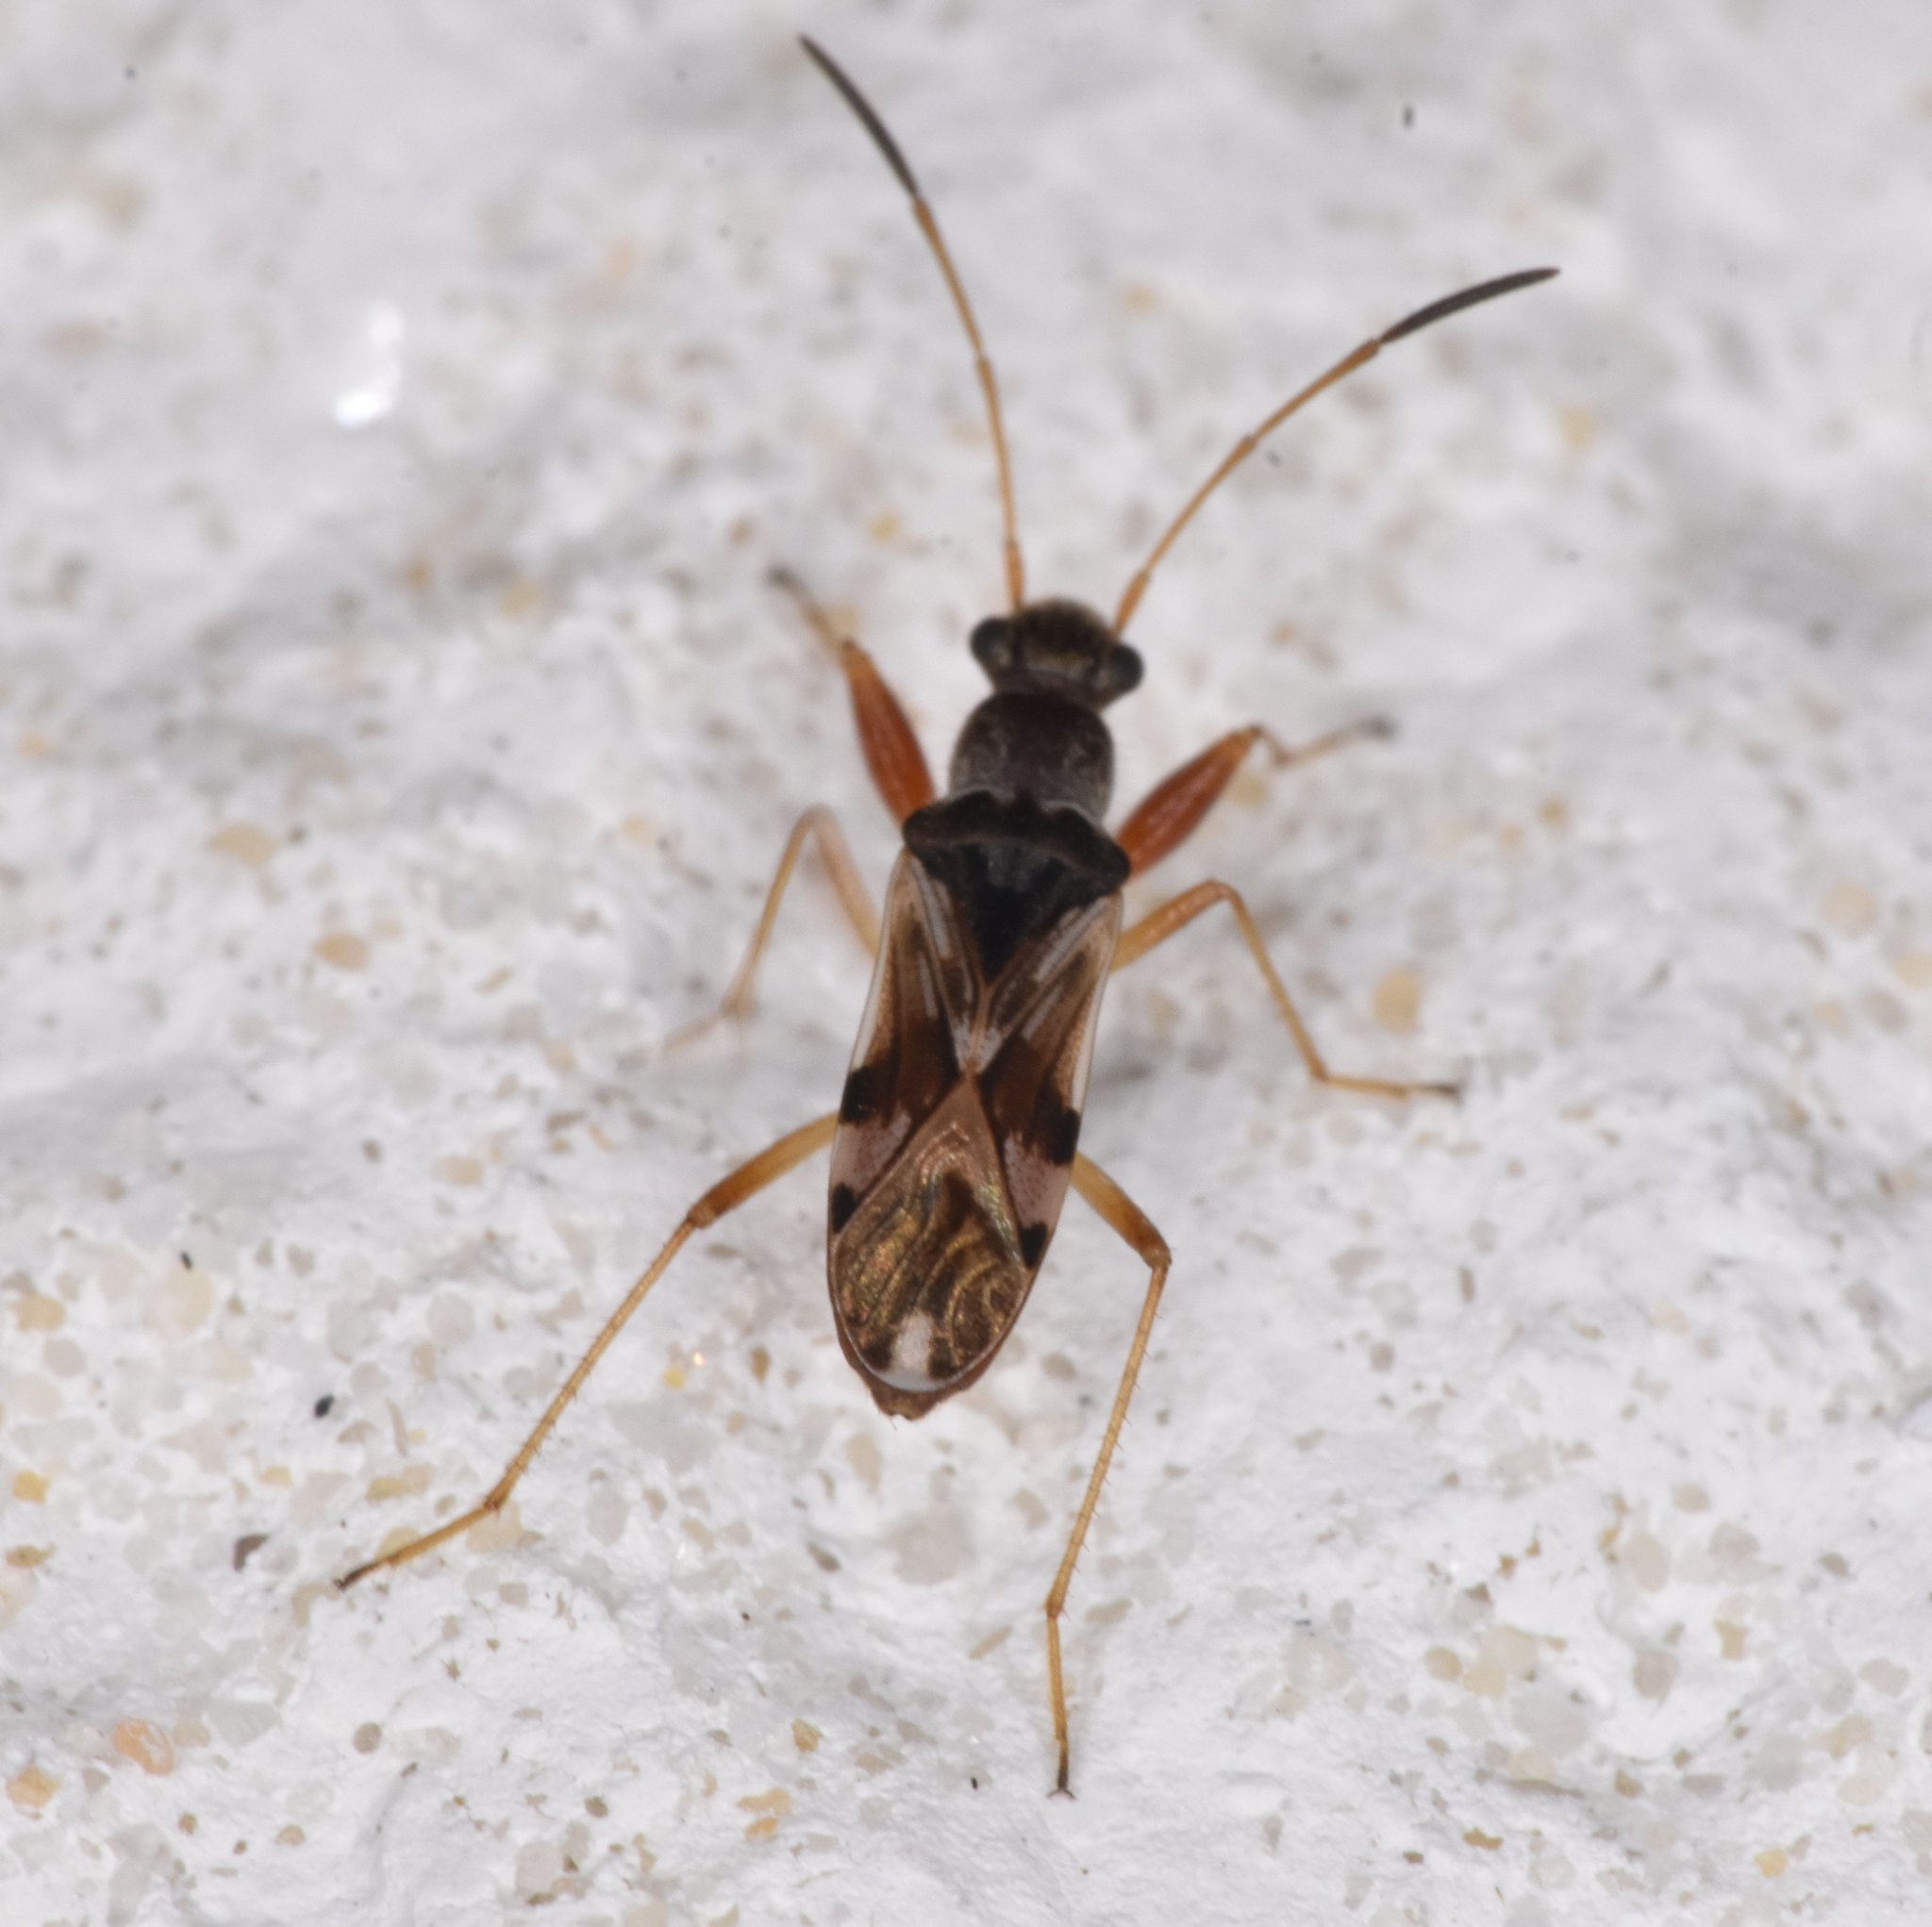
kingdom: Animalia
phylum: Arthropoda
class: Insecta
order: Hemiptera
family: Rhyparochromidae
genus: Neopamera
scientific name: Neopamera bilobata
